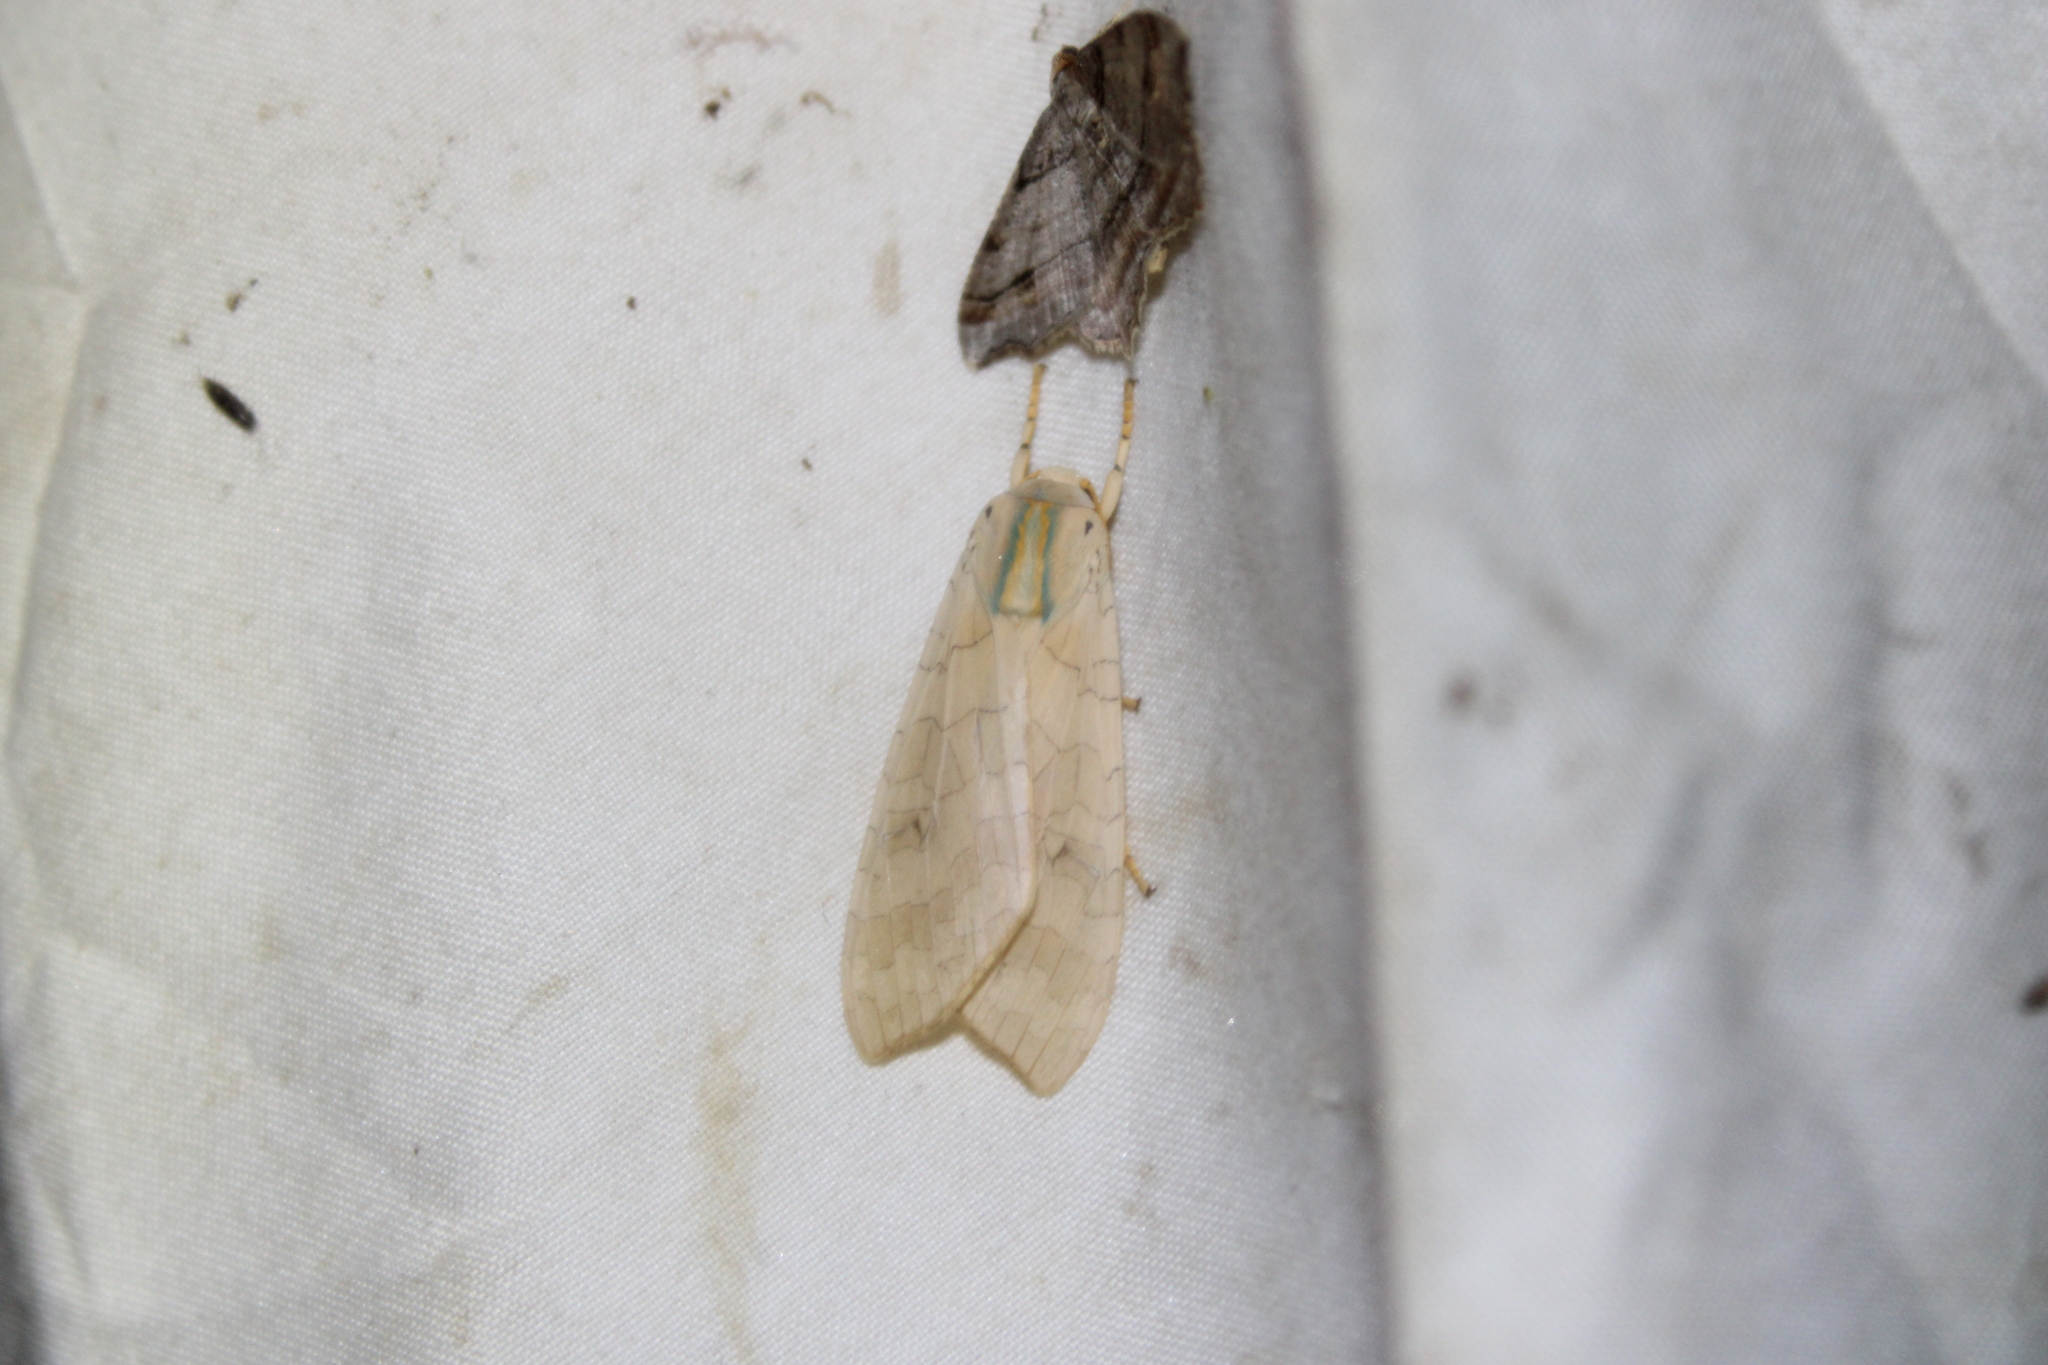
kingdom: Animalia
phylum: Arthropoda
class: Insecta
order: Lepidoptera
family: Erebidae
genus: Halysidota
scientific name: Halysidota
